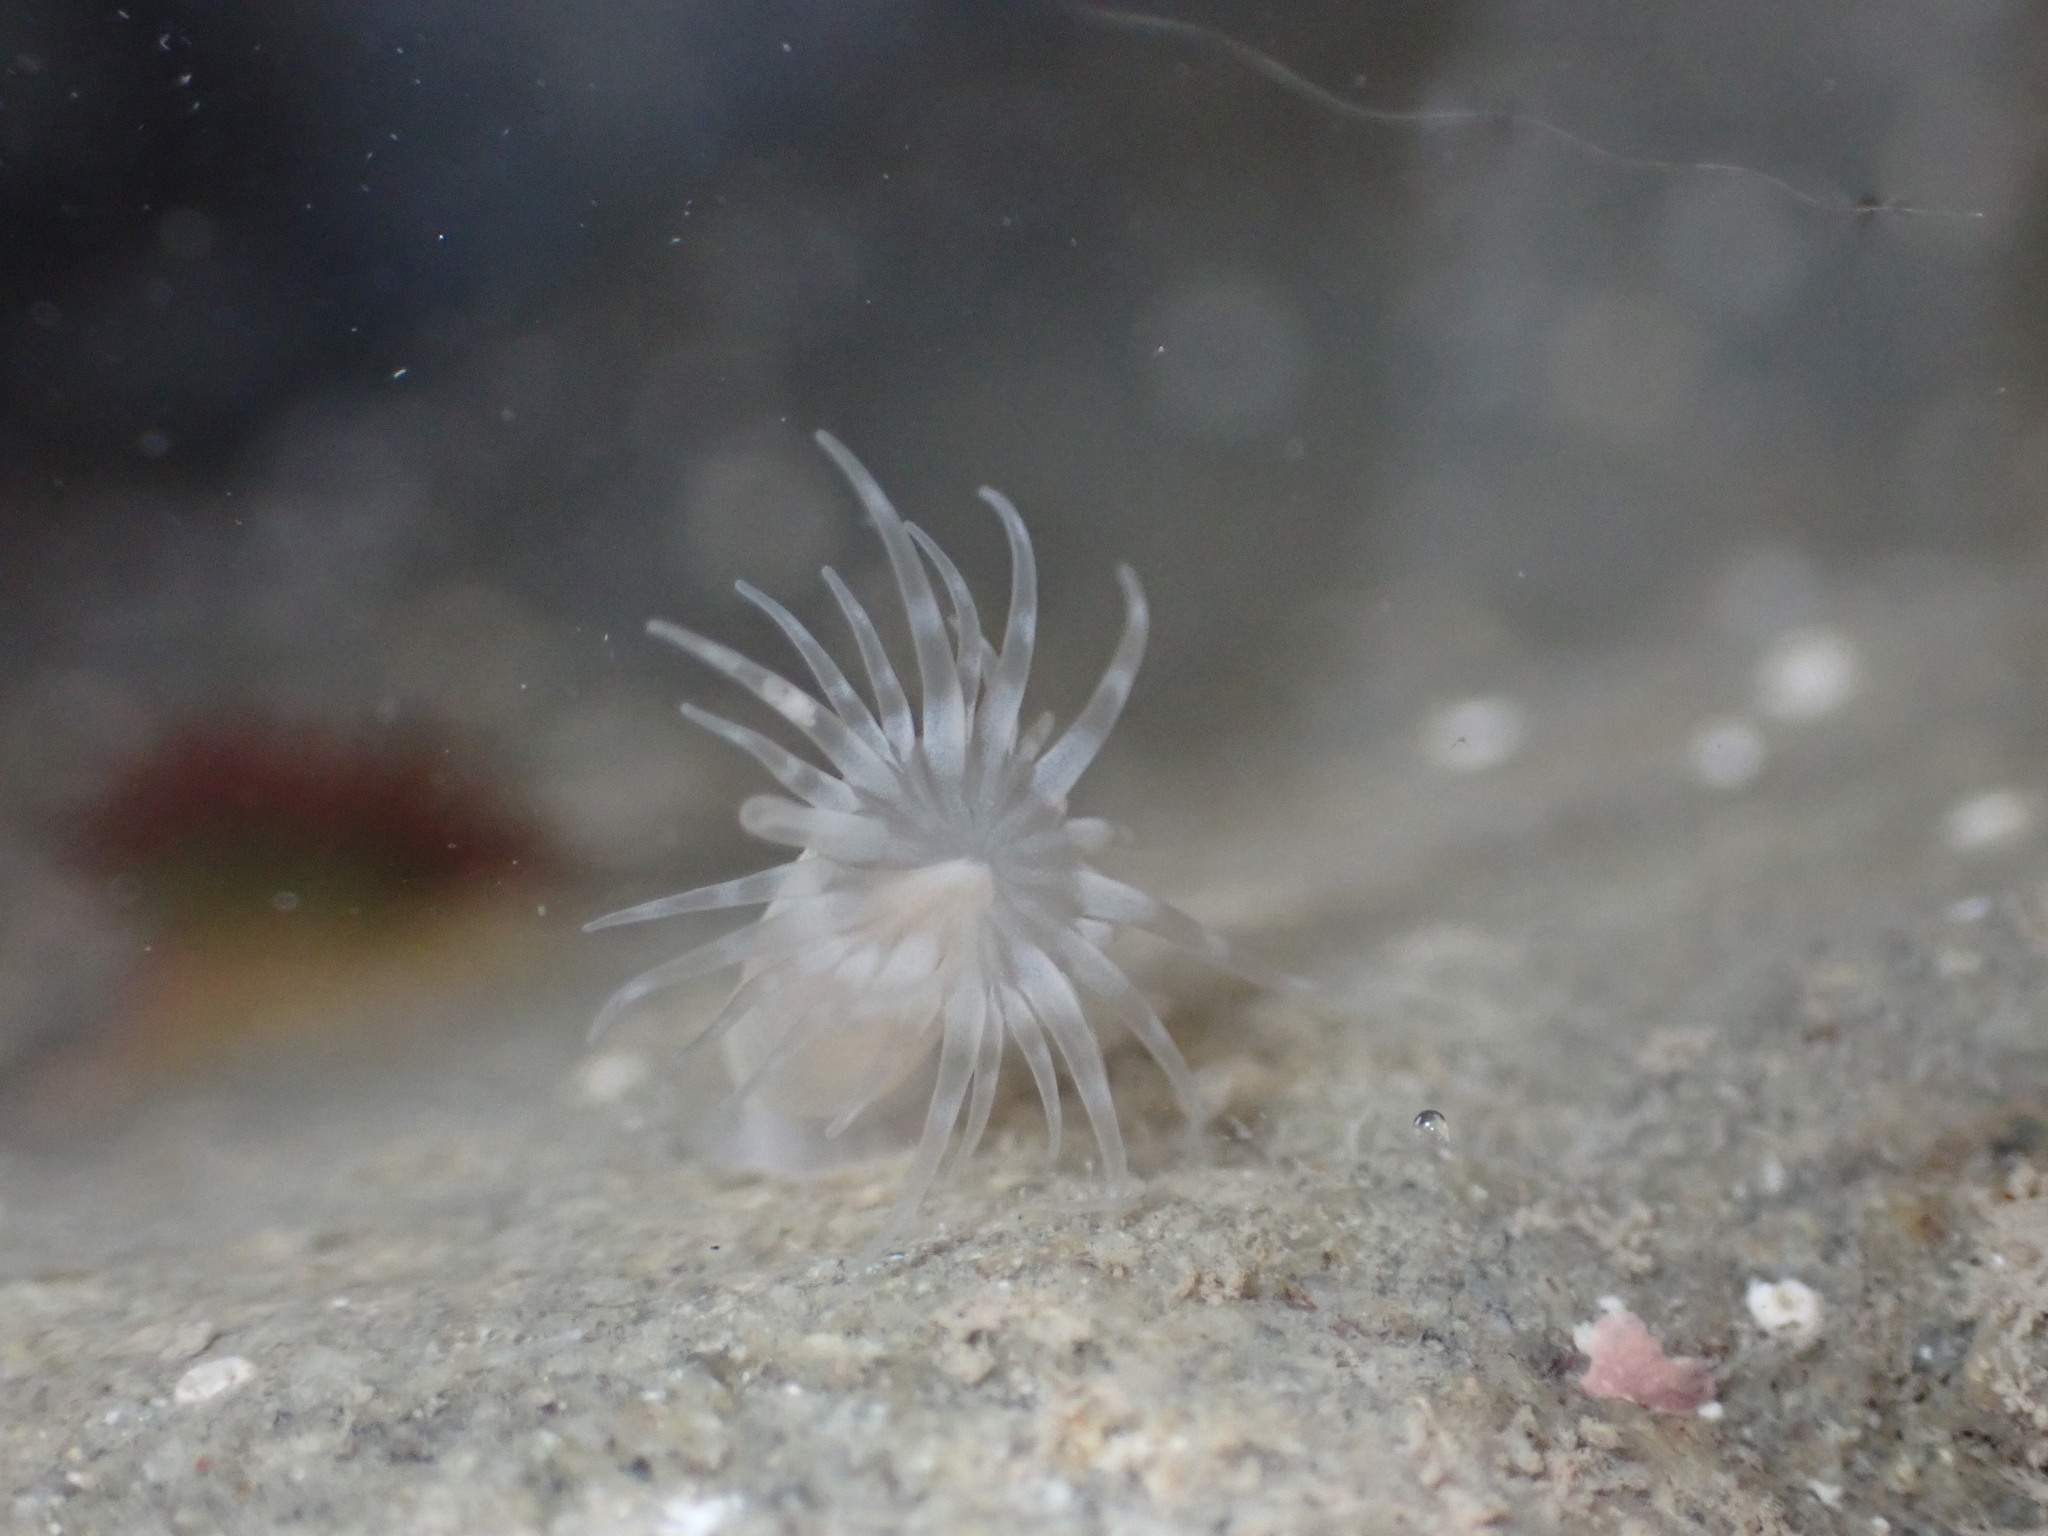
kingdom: Animalia
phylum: Cnidaria
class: Anthozoa
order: Actiniaria
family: Isanthidae
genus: Isoparactis
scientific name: Isoparactis ferax
